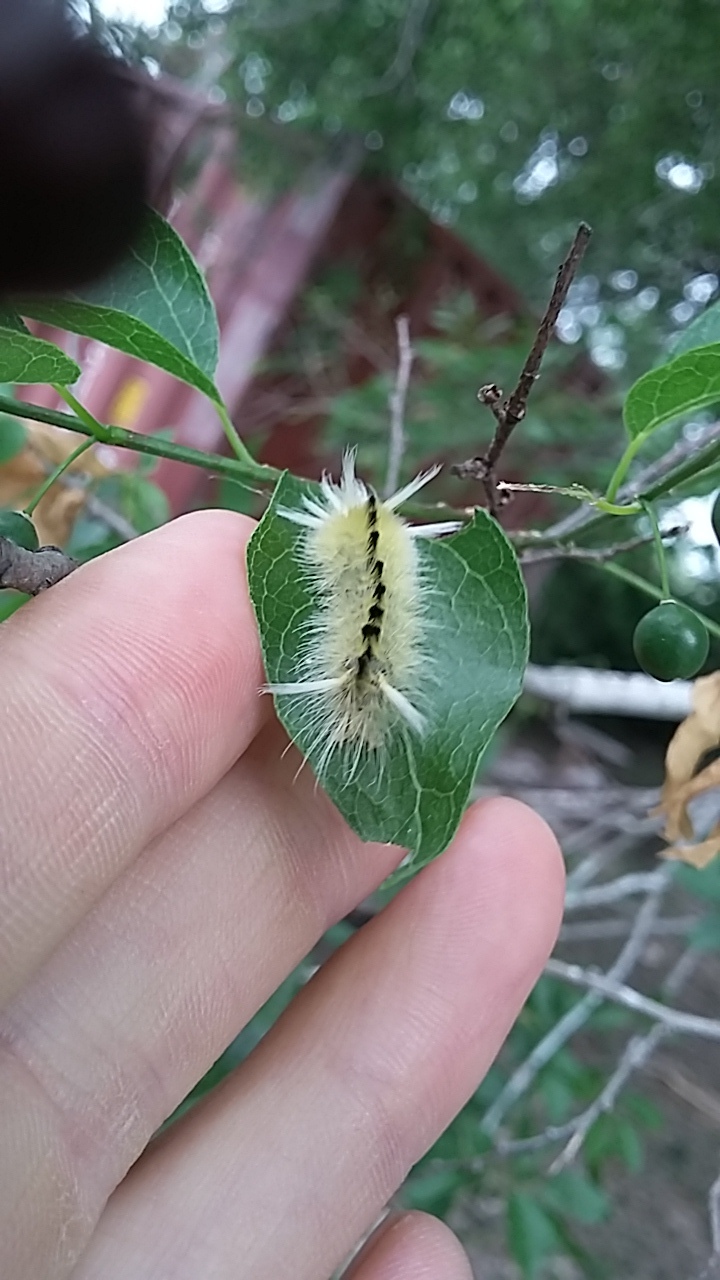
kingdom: Animalia
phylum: Arthropoda
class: Insecta
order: Lepidoptera
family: Erebidae
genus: Halysidota
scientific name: Halysidota schausi
